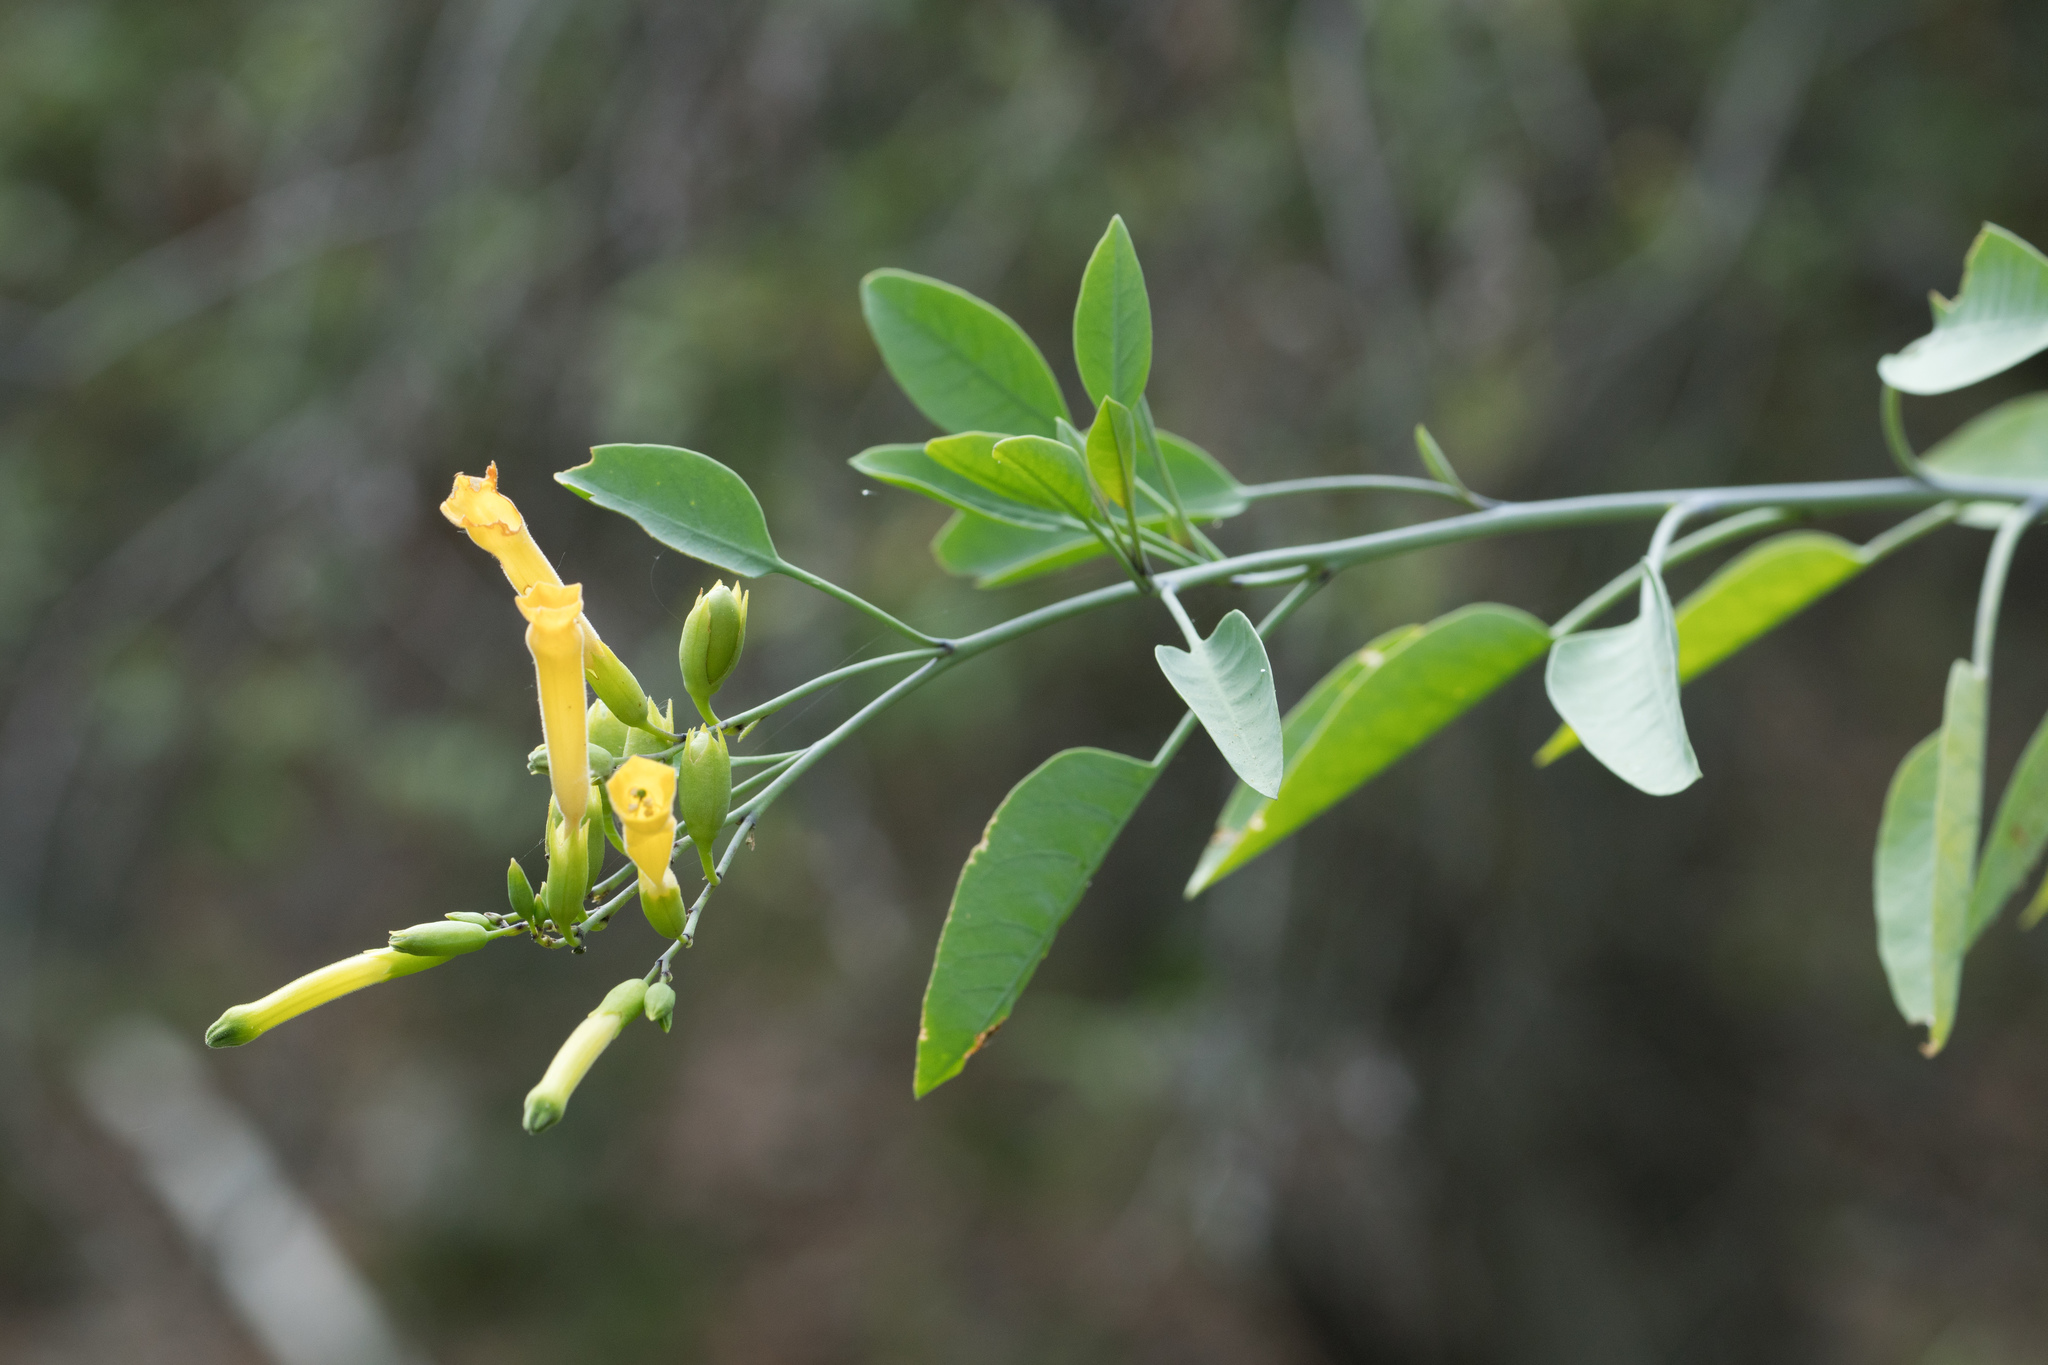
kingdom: Plantae
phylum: Tracheophyta
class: Magnoliopsida
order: Solanales
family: Solanaceae
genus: Nicotiana
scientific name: Nicotiana glauca
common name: Tree tobacco
